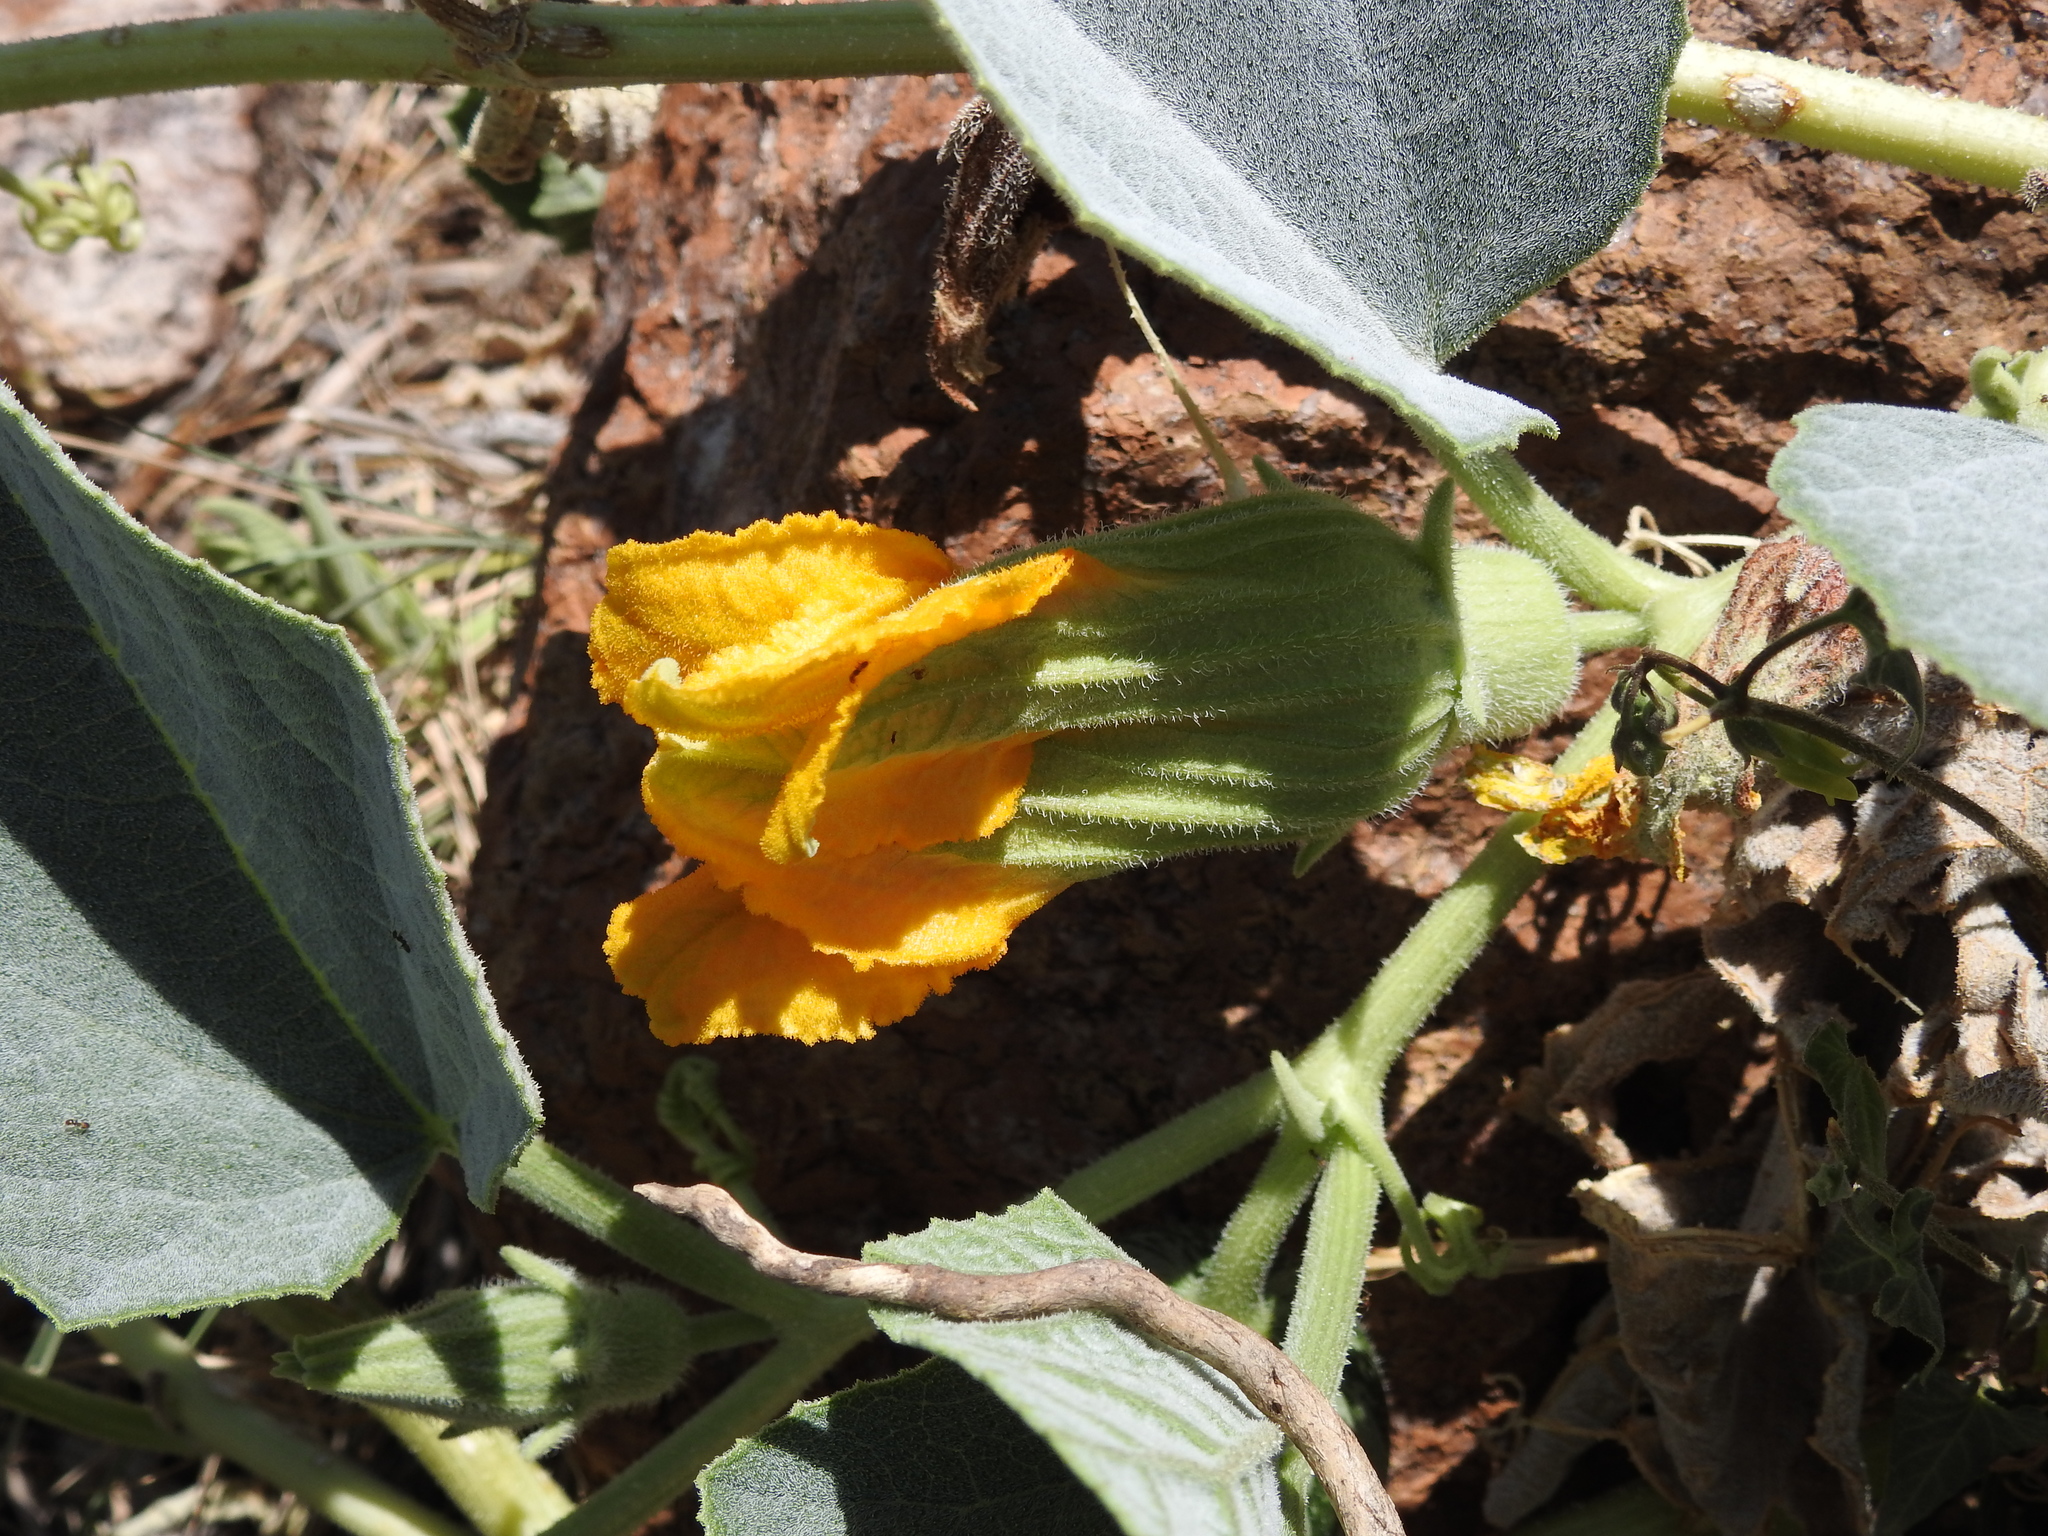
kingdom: Plantae
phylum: Tracheophyta
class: Magnoliopsida
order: Cucurbitales
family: Cucurbitaceae
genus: Cucurbita
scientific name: Cucurbita foetidissima
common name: Buffalo gourd
